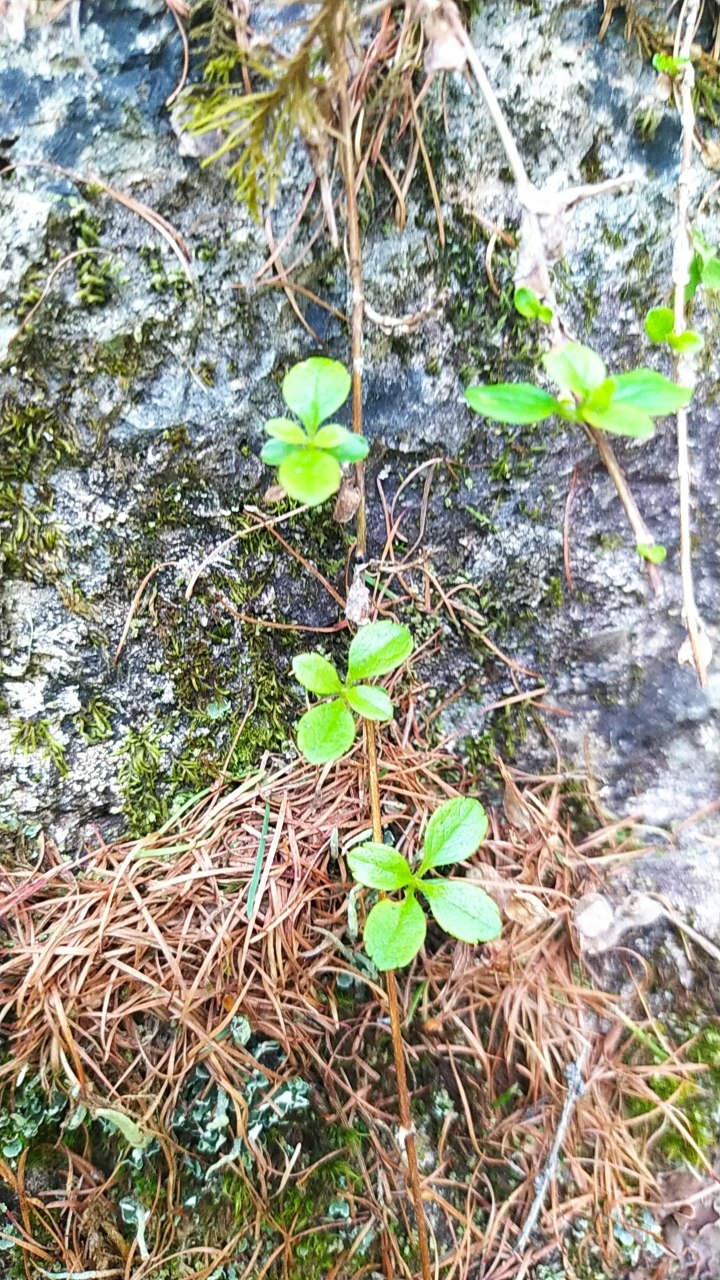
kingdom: Plantae
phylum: Tracheophyta
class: Magnoliopsida
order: Dipsacales
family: Caprifoliaceae
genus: Linnaea
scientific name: Linnaea borealis
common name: Twinflower
